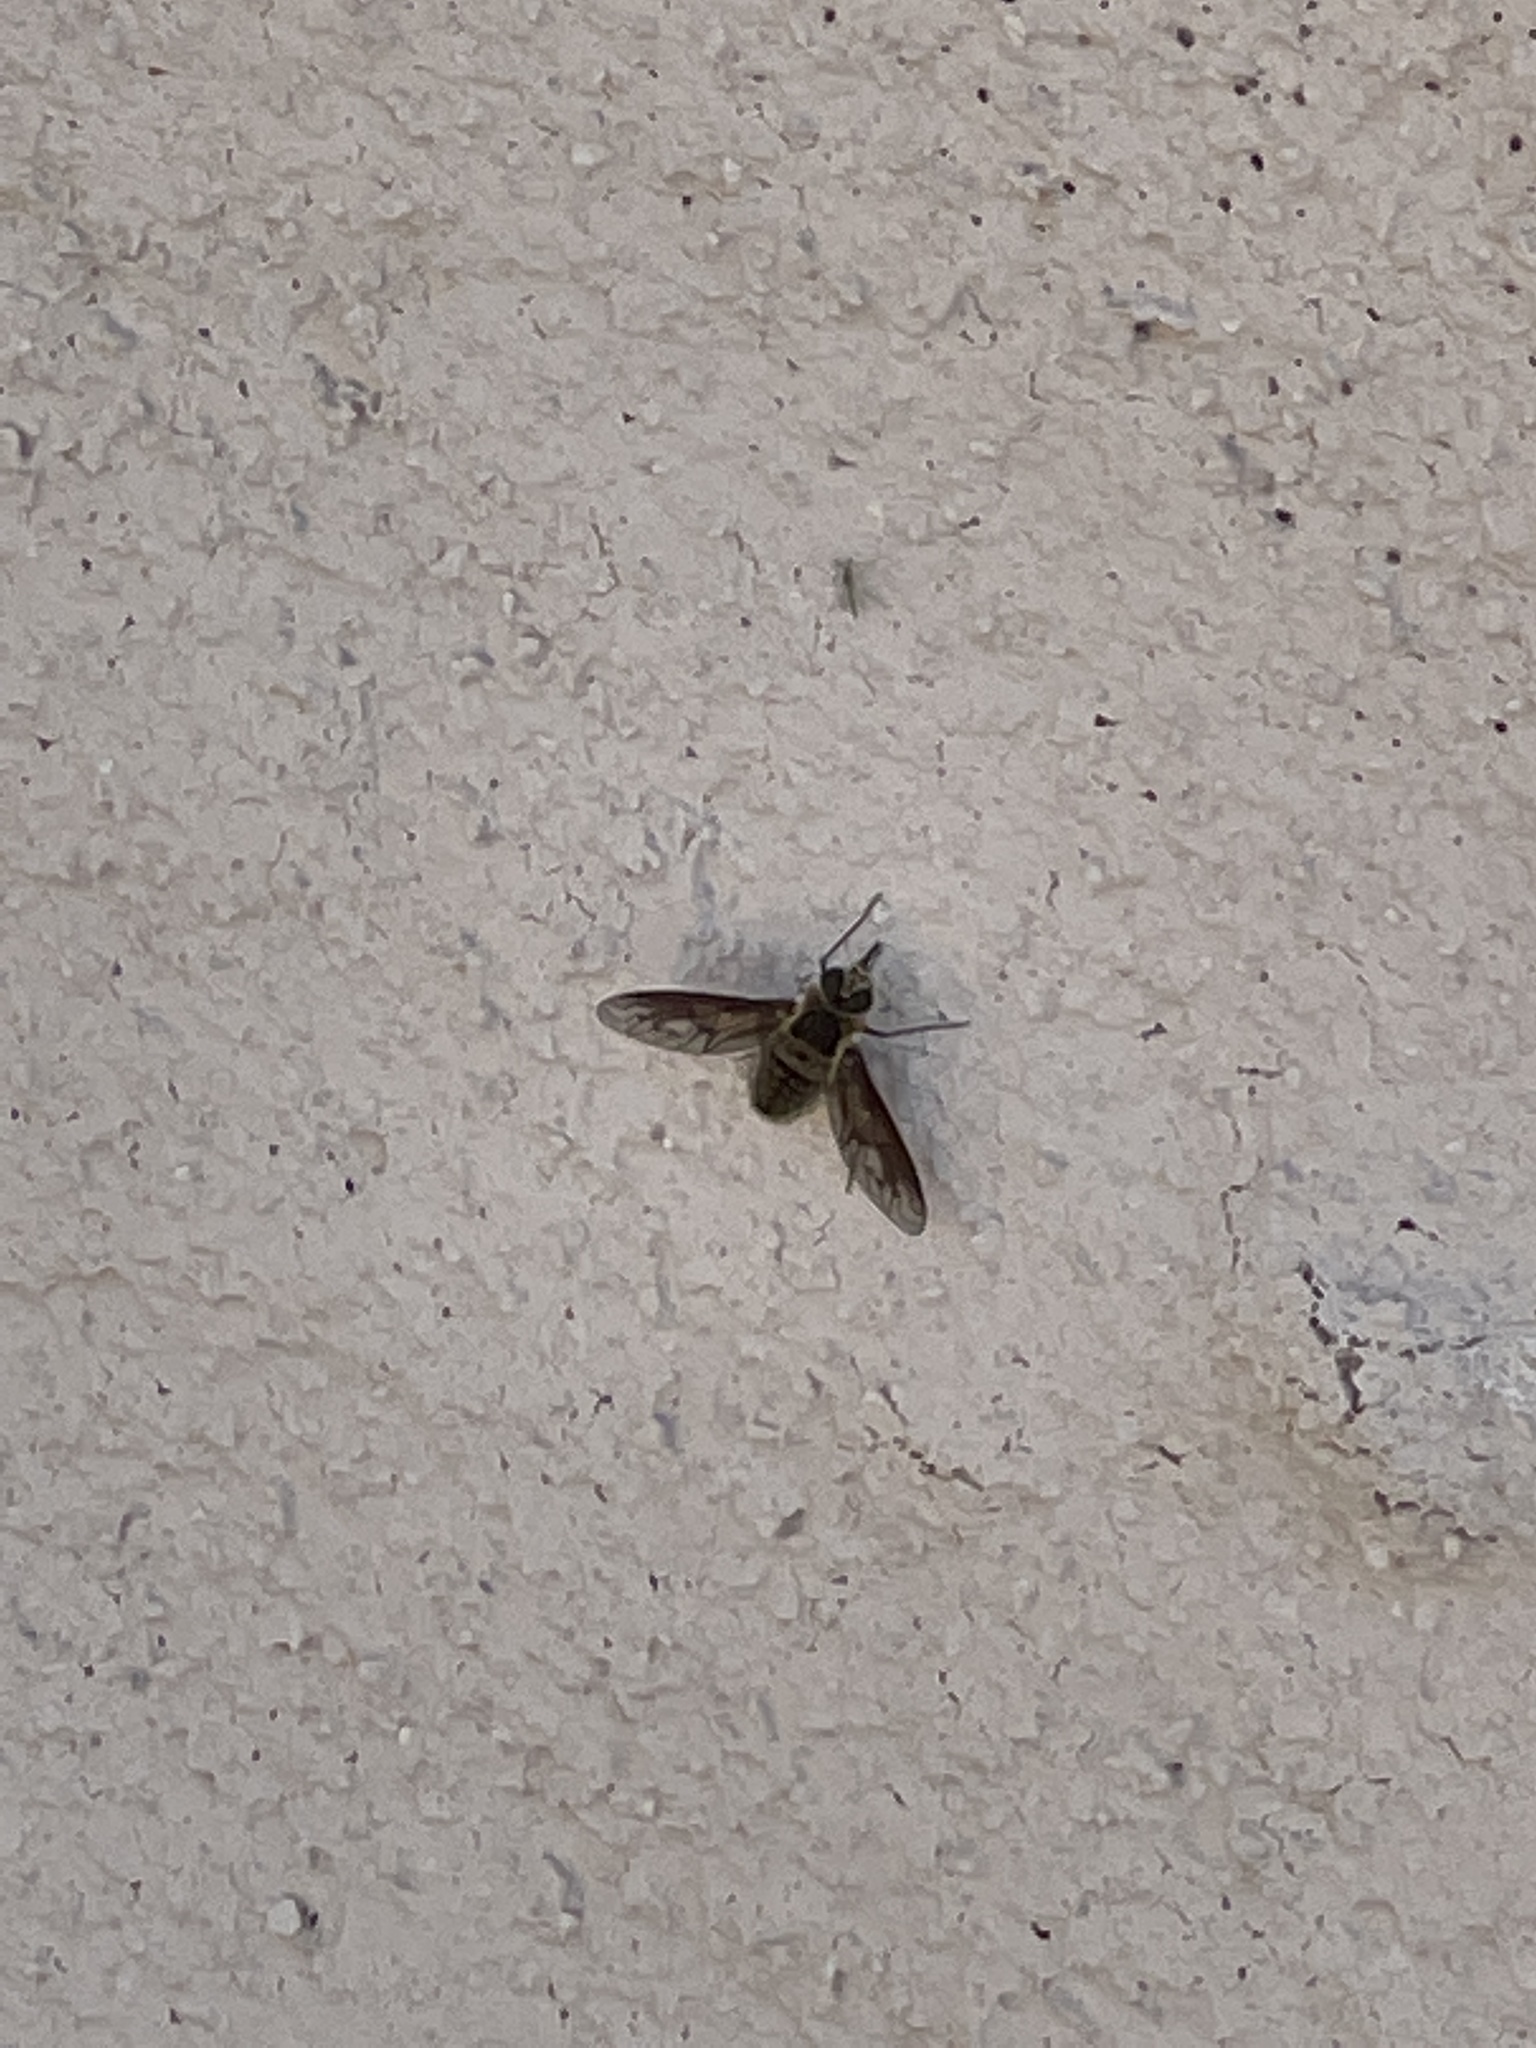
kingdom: Animalia
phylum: Arthropoda
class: Insecta
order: Diptera
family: Bombyliidae
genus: Poecilanthrax
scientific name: Poecilanthrax californicus
